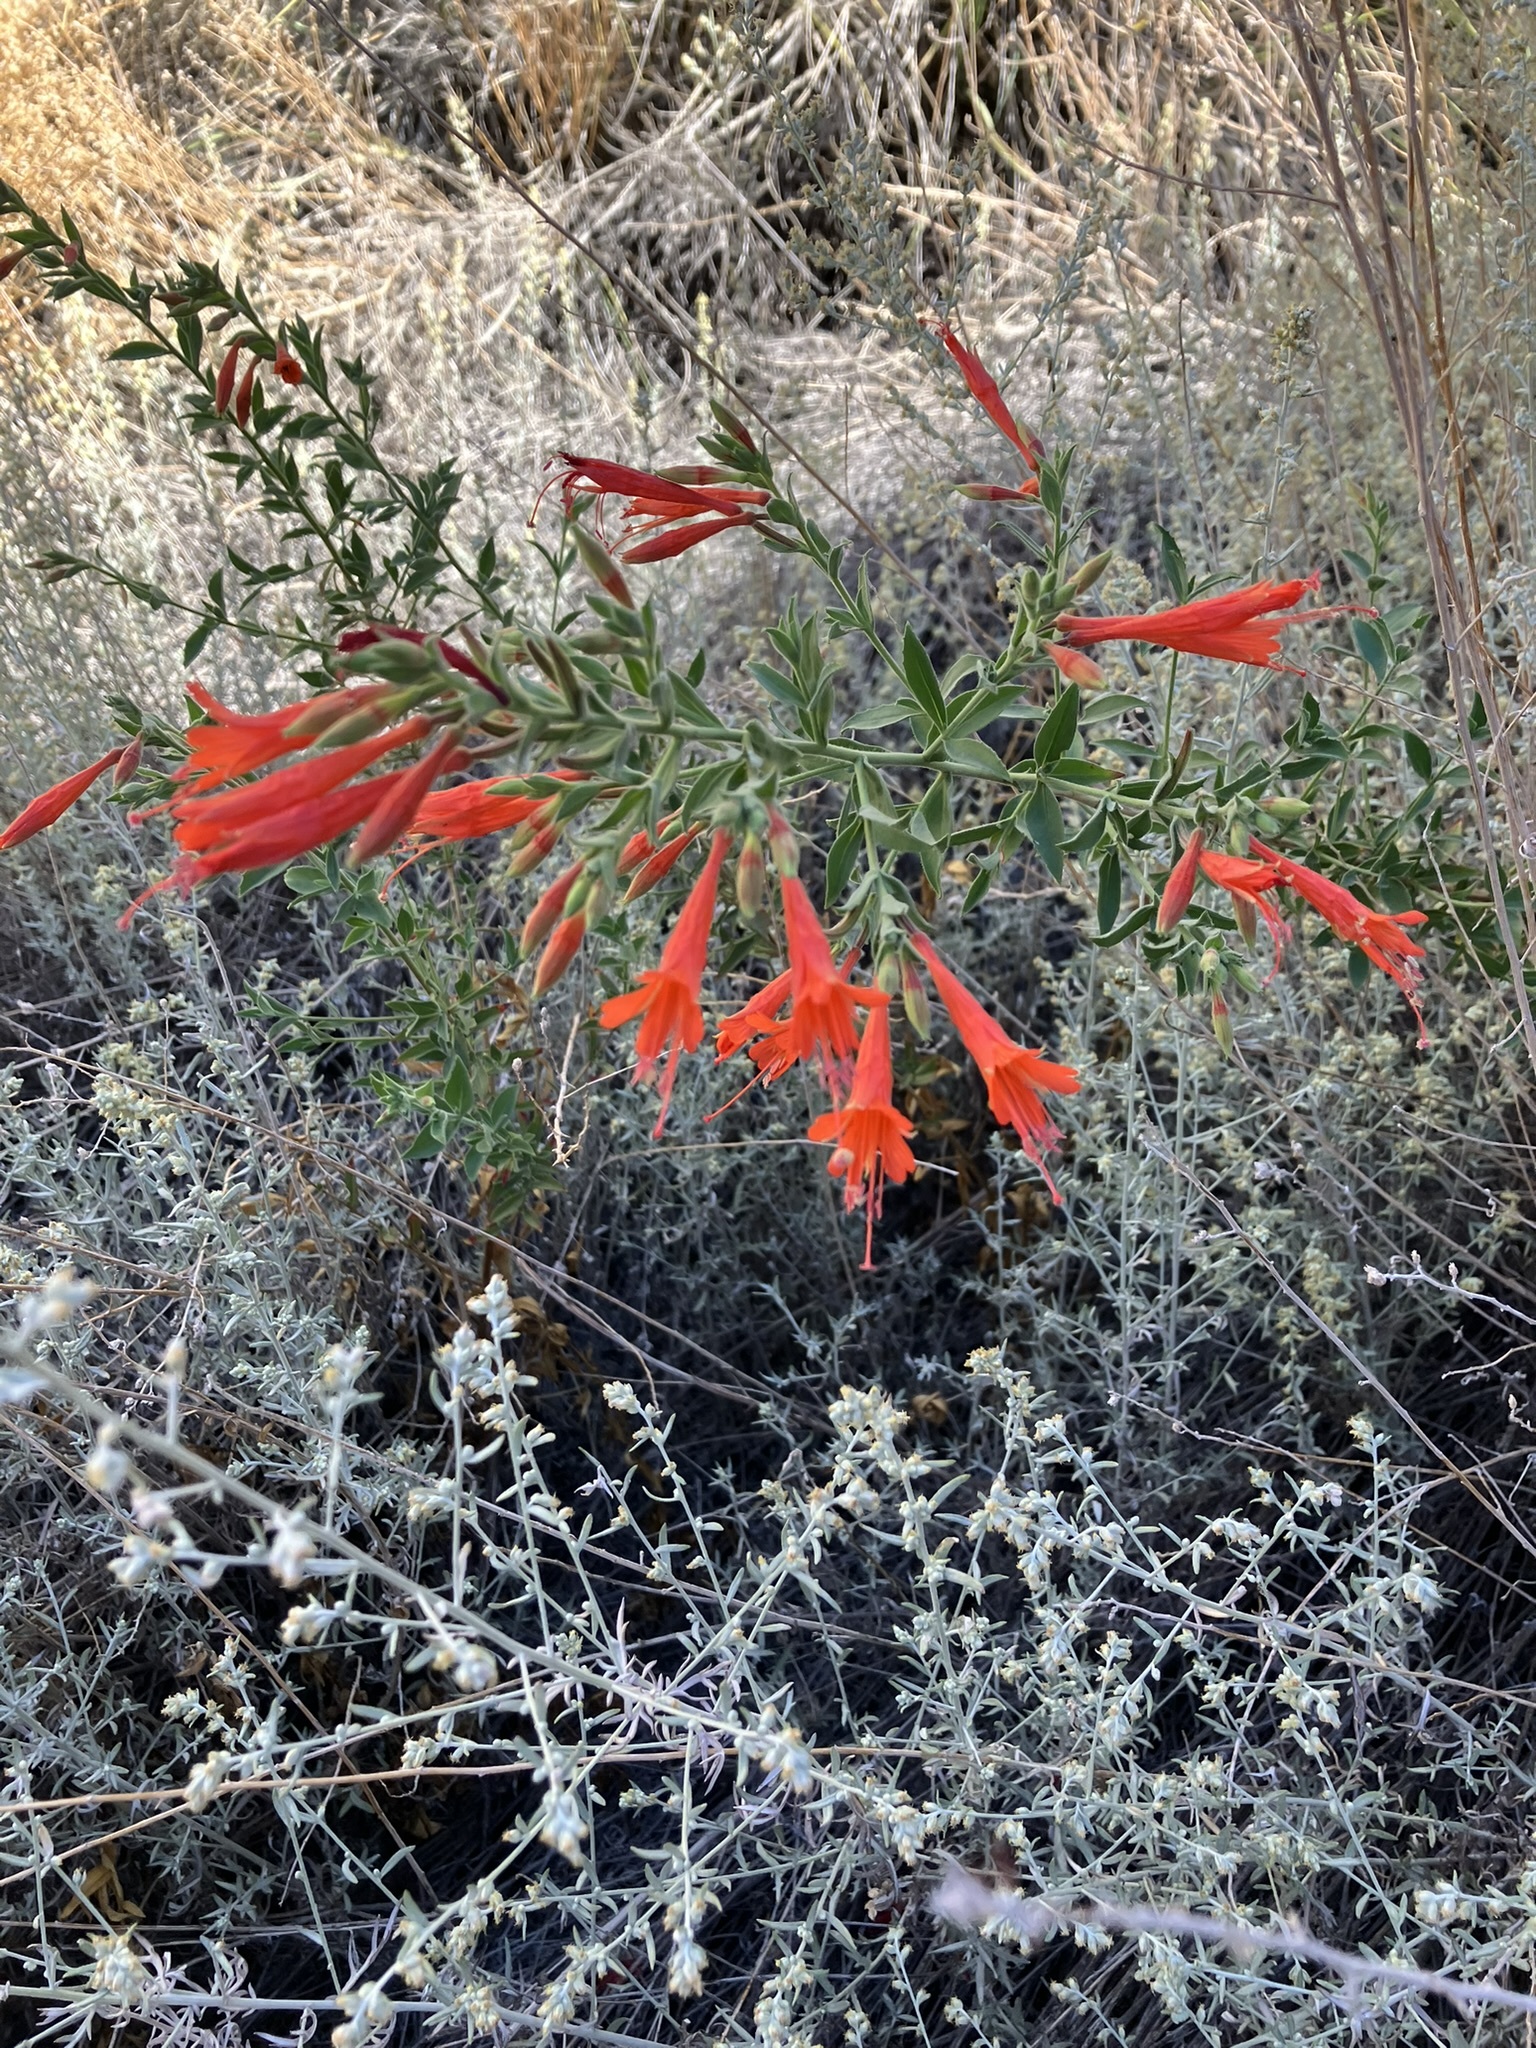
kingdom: Plantae
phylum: Tracheophyta
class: Magnoliopsida
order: Myrtales
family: Onagraceae
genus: Epilobium
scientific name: Epilobium canum
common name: California-fuchsia
